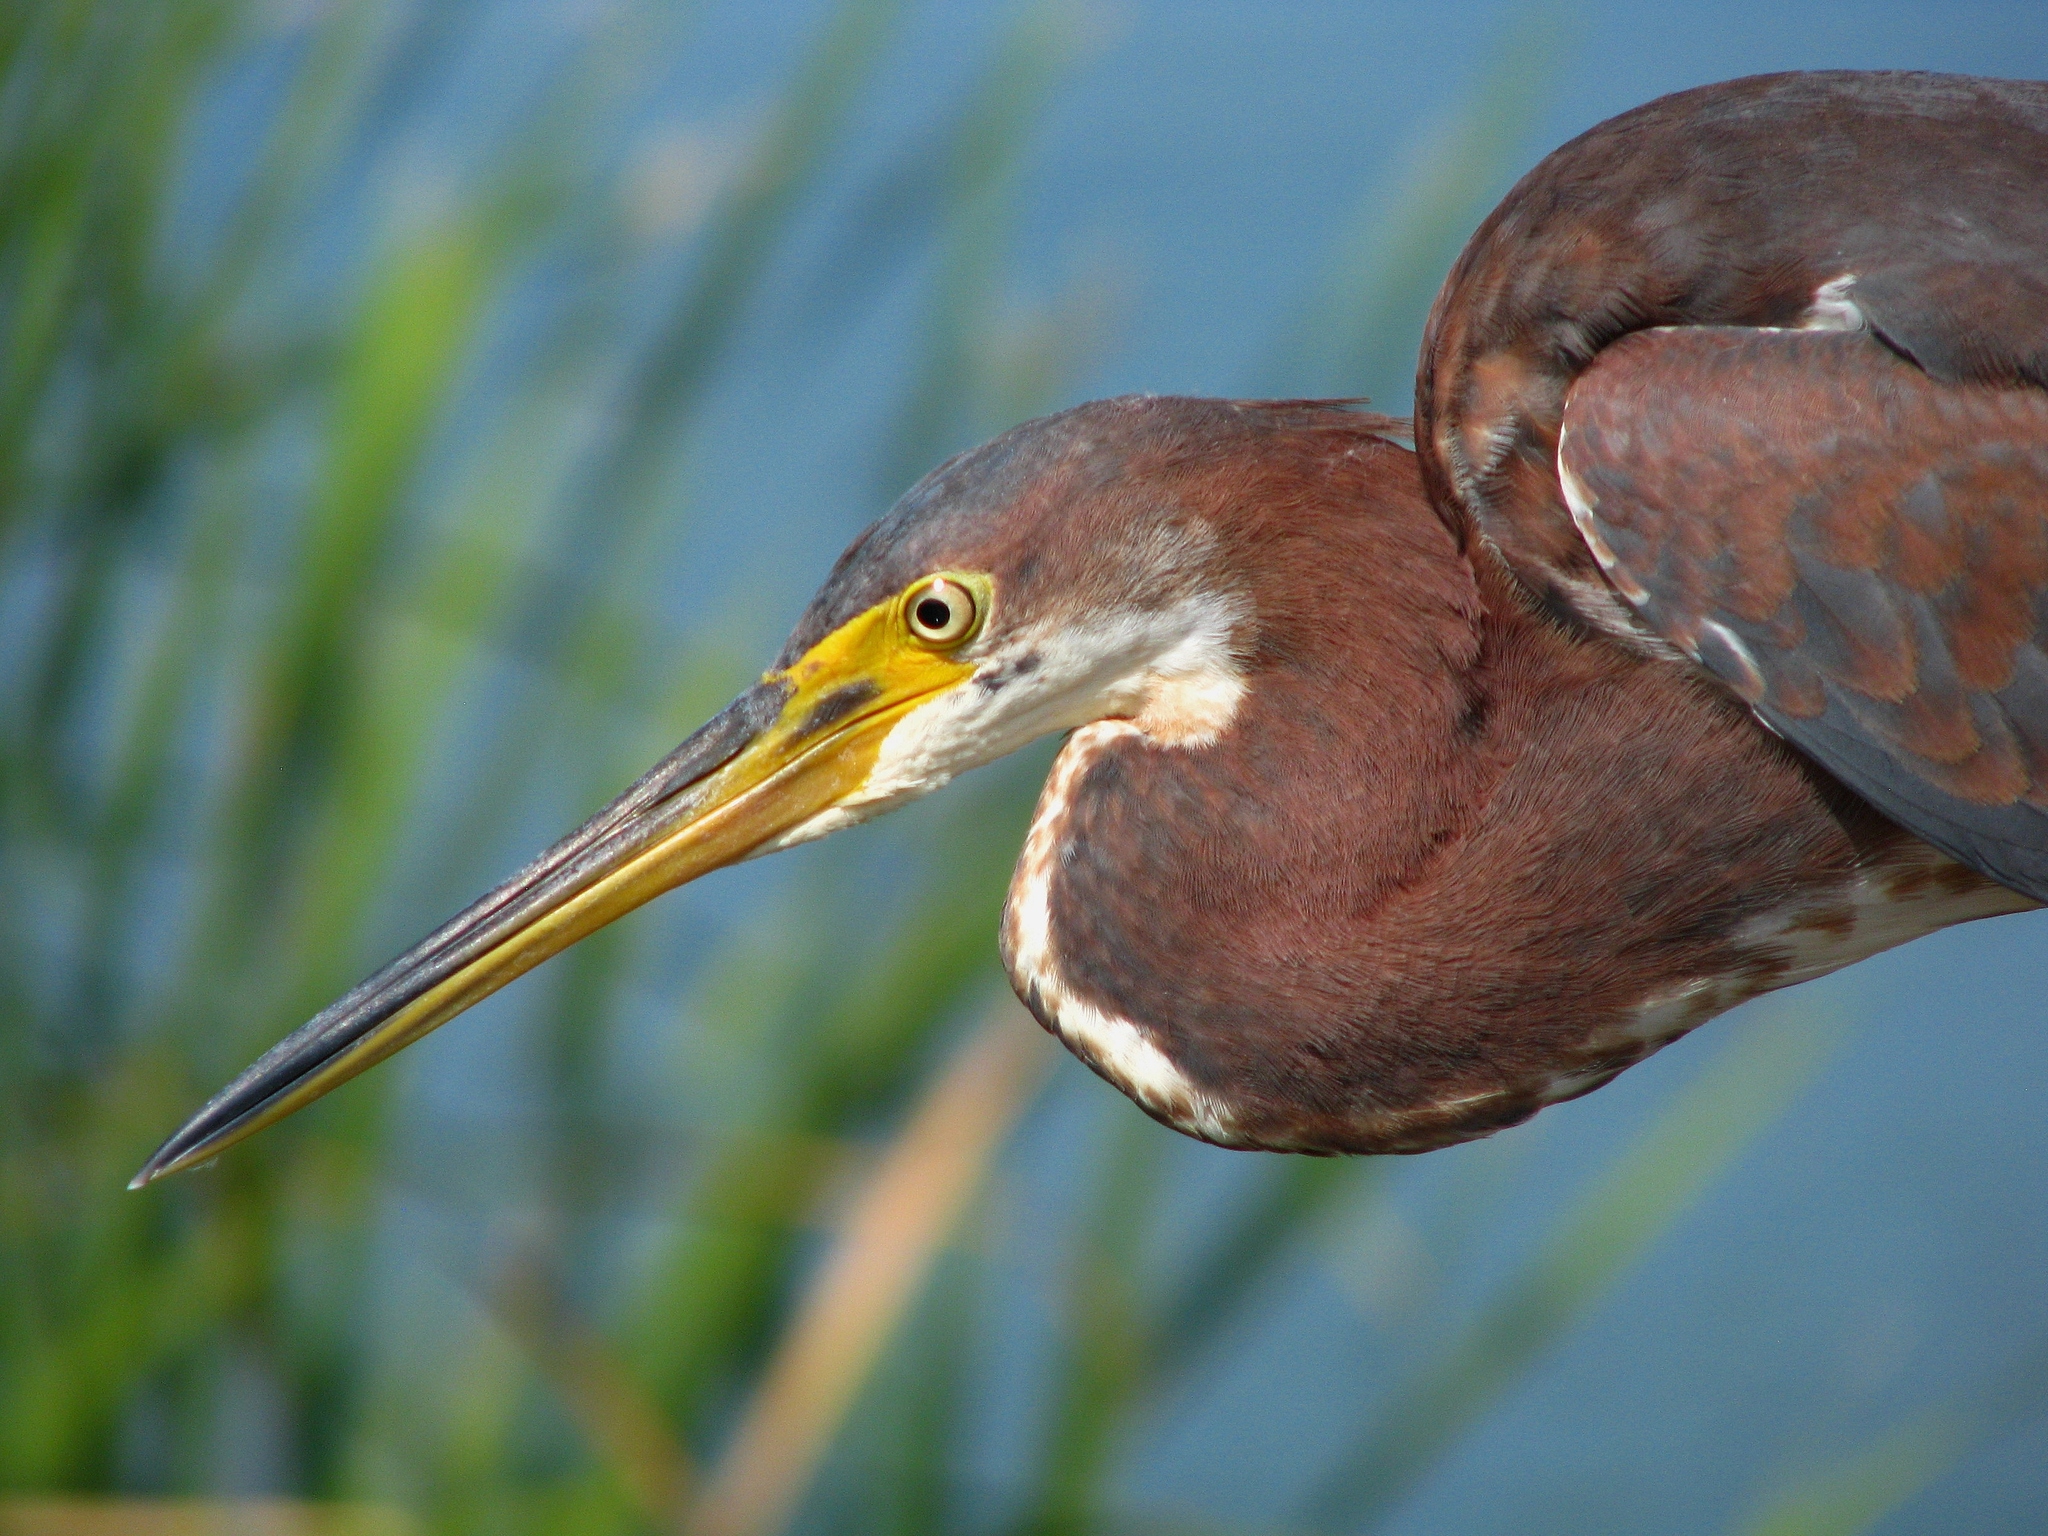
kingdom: Animalia
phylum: Chordata
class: Aves
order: Pelecaniformes
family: Ardeidae
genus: Egretta
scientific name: Egretta tricolor
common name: Tricolored heron
